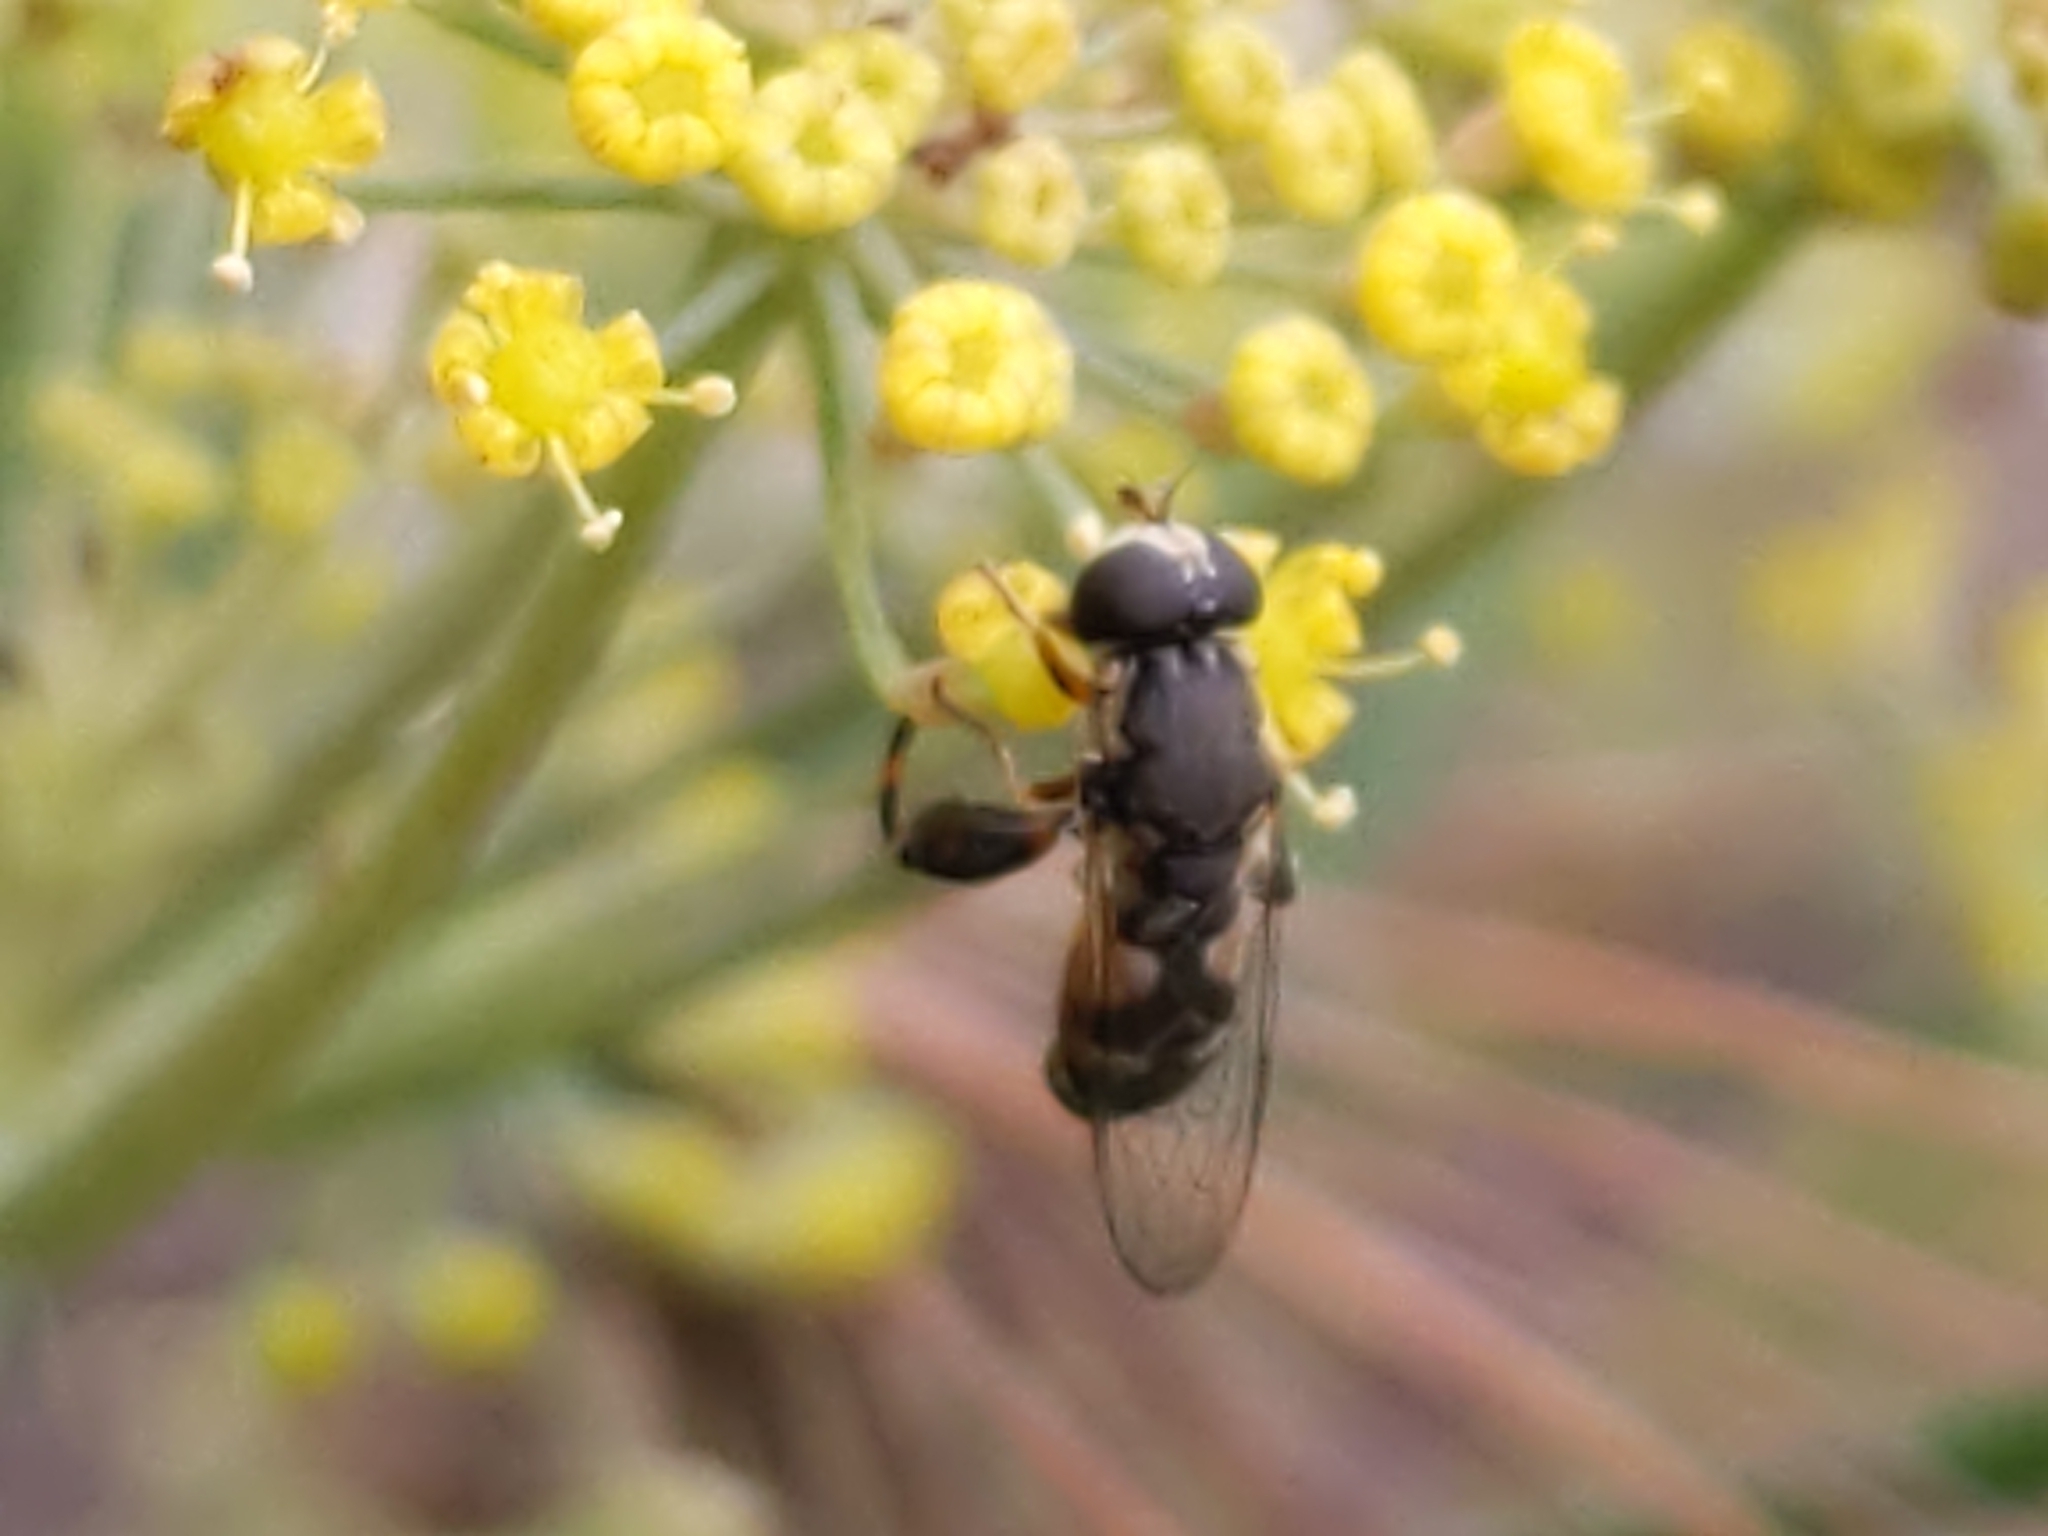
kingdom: Animalia
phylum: Arthropoda
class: Insecta
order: Diptera
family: Syrphidae
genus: Syritta
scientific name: Syritta pipiens
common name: Hover fly
